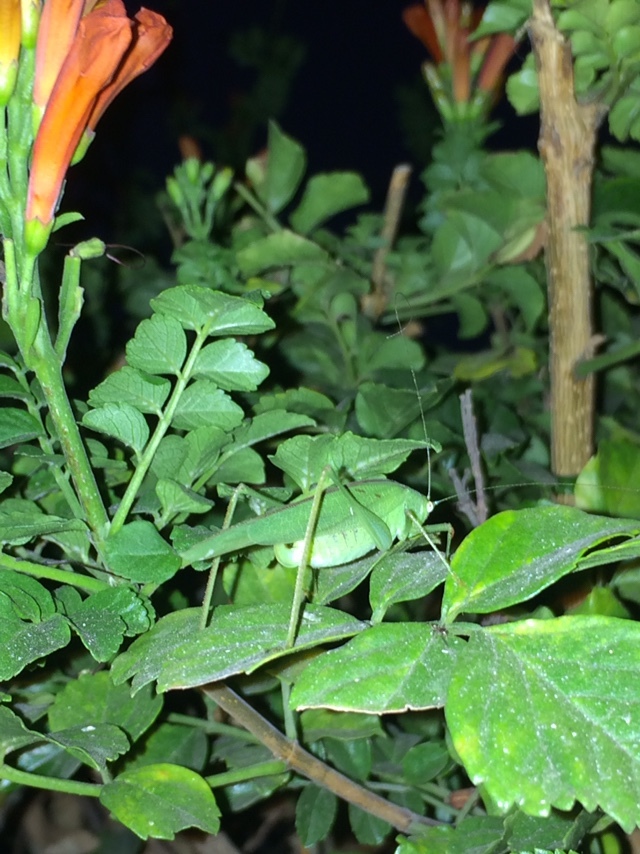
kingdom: Animalia
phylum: Arthropoda
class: Insecta
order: Orthoptera
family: Tettigoniidae
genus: Phaneroptera
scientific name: Phaneroptera nana
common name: Southern sickle bush-cricket
